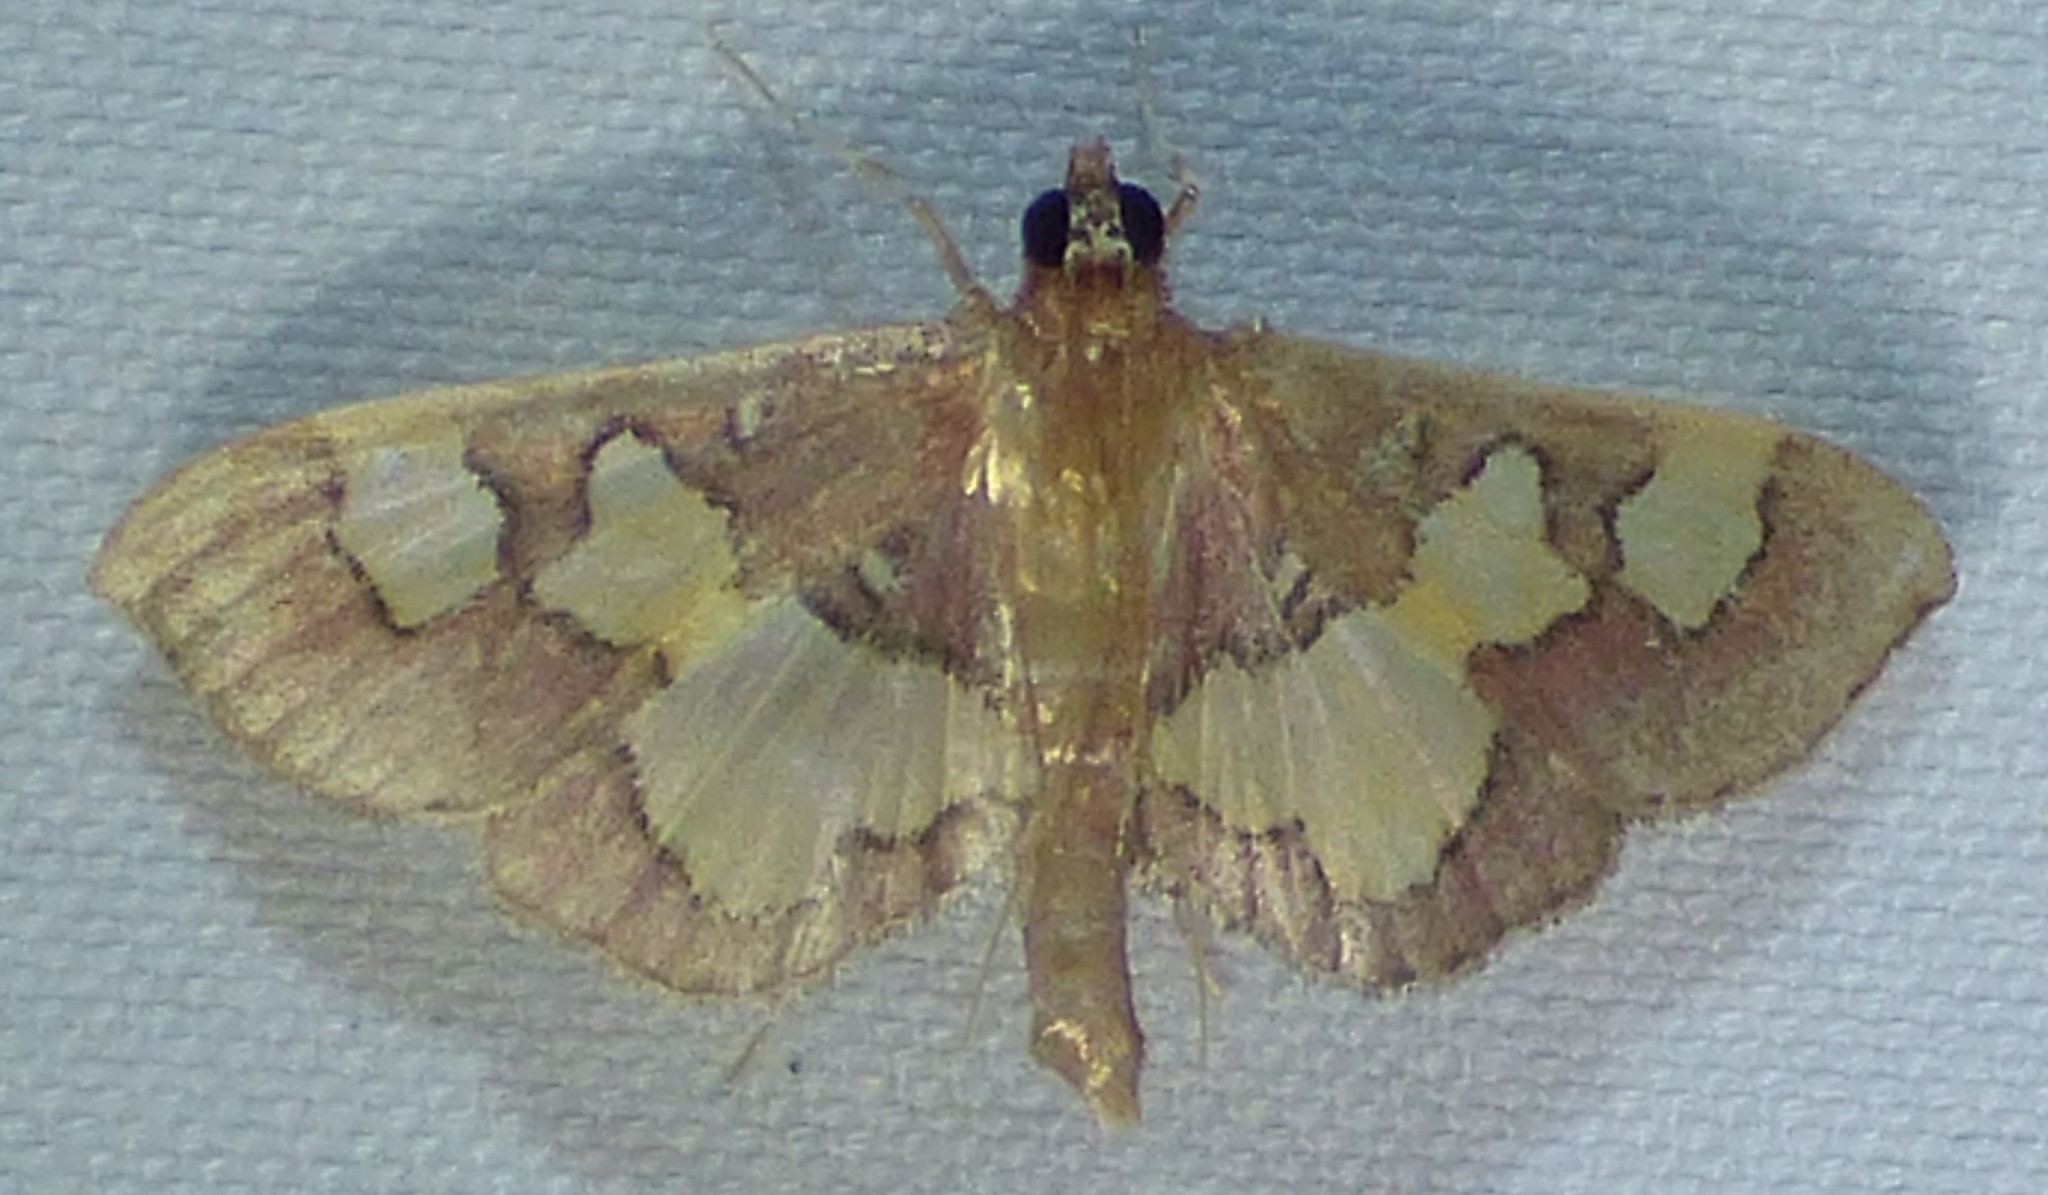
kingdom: Animalia
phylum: Arthropoda
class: Insecta
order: Lepidoptera
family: Crambidae
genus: Colomychus
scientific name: Colomychus talis
